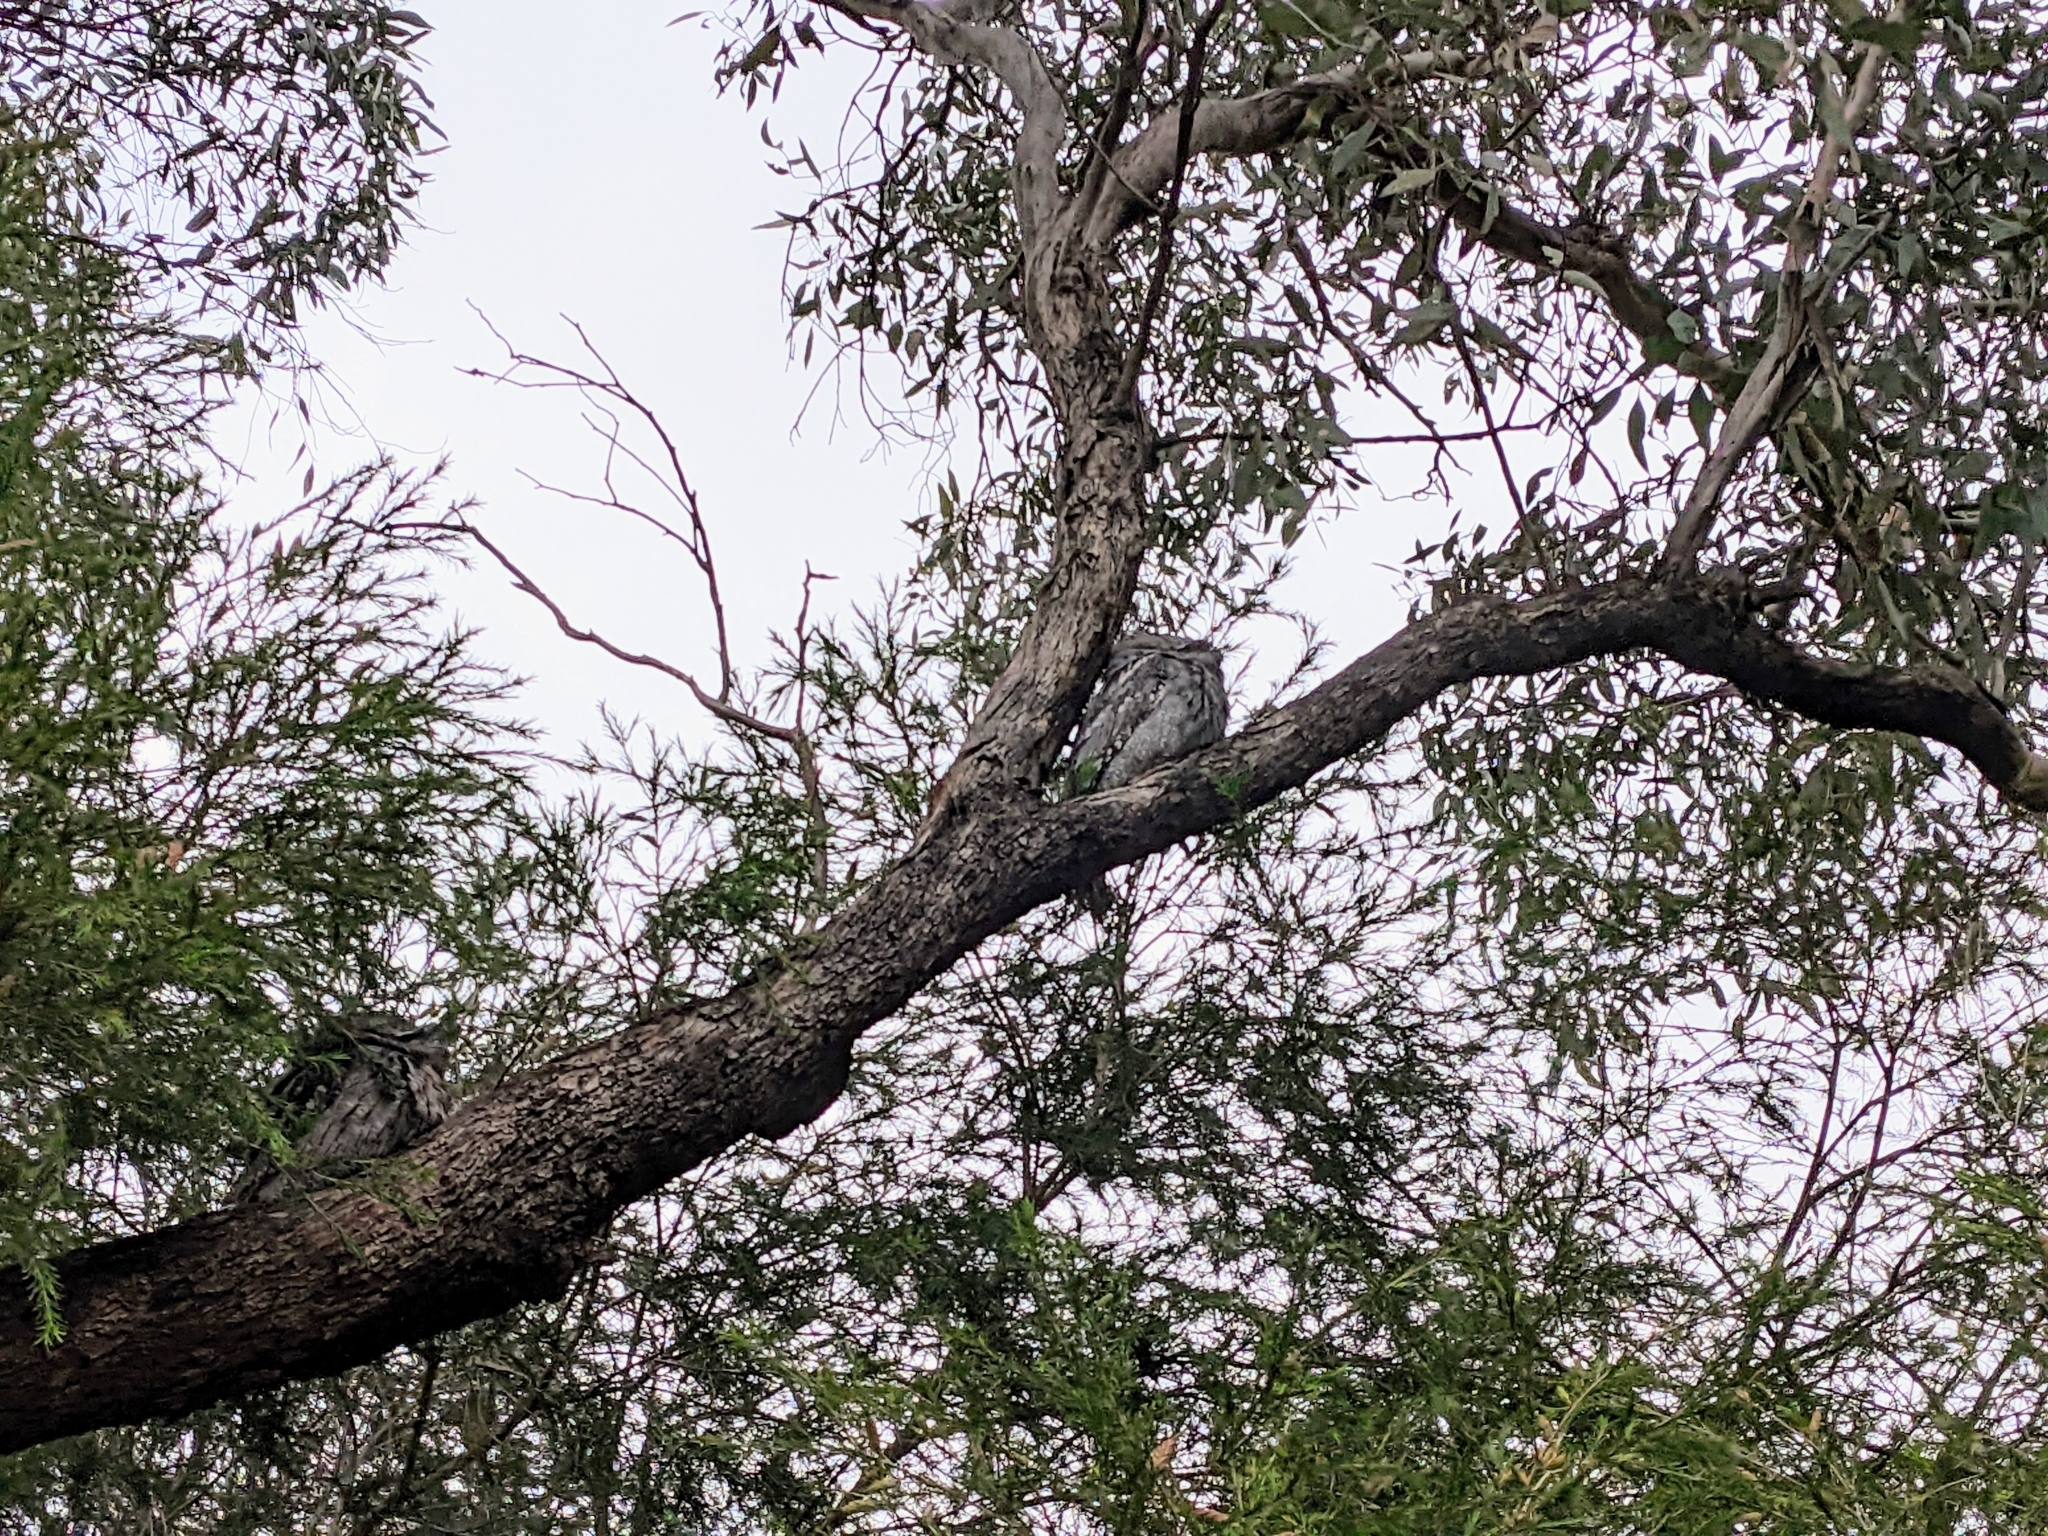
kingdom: Animalia
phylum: Chordata
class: Aves
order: Caprimulgiformes
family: Podargidae
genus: Podargus
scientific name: Podargus strigoides
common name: Tawny frogmouth
